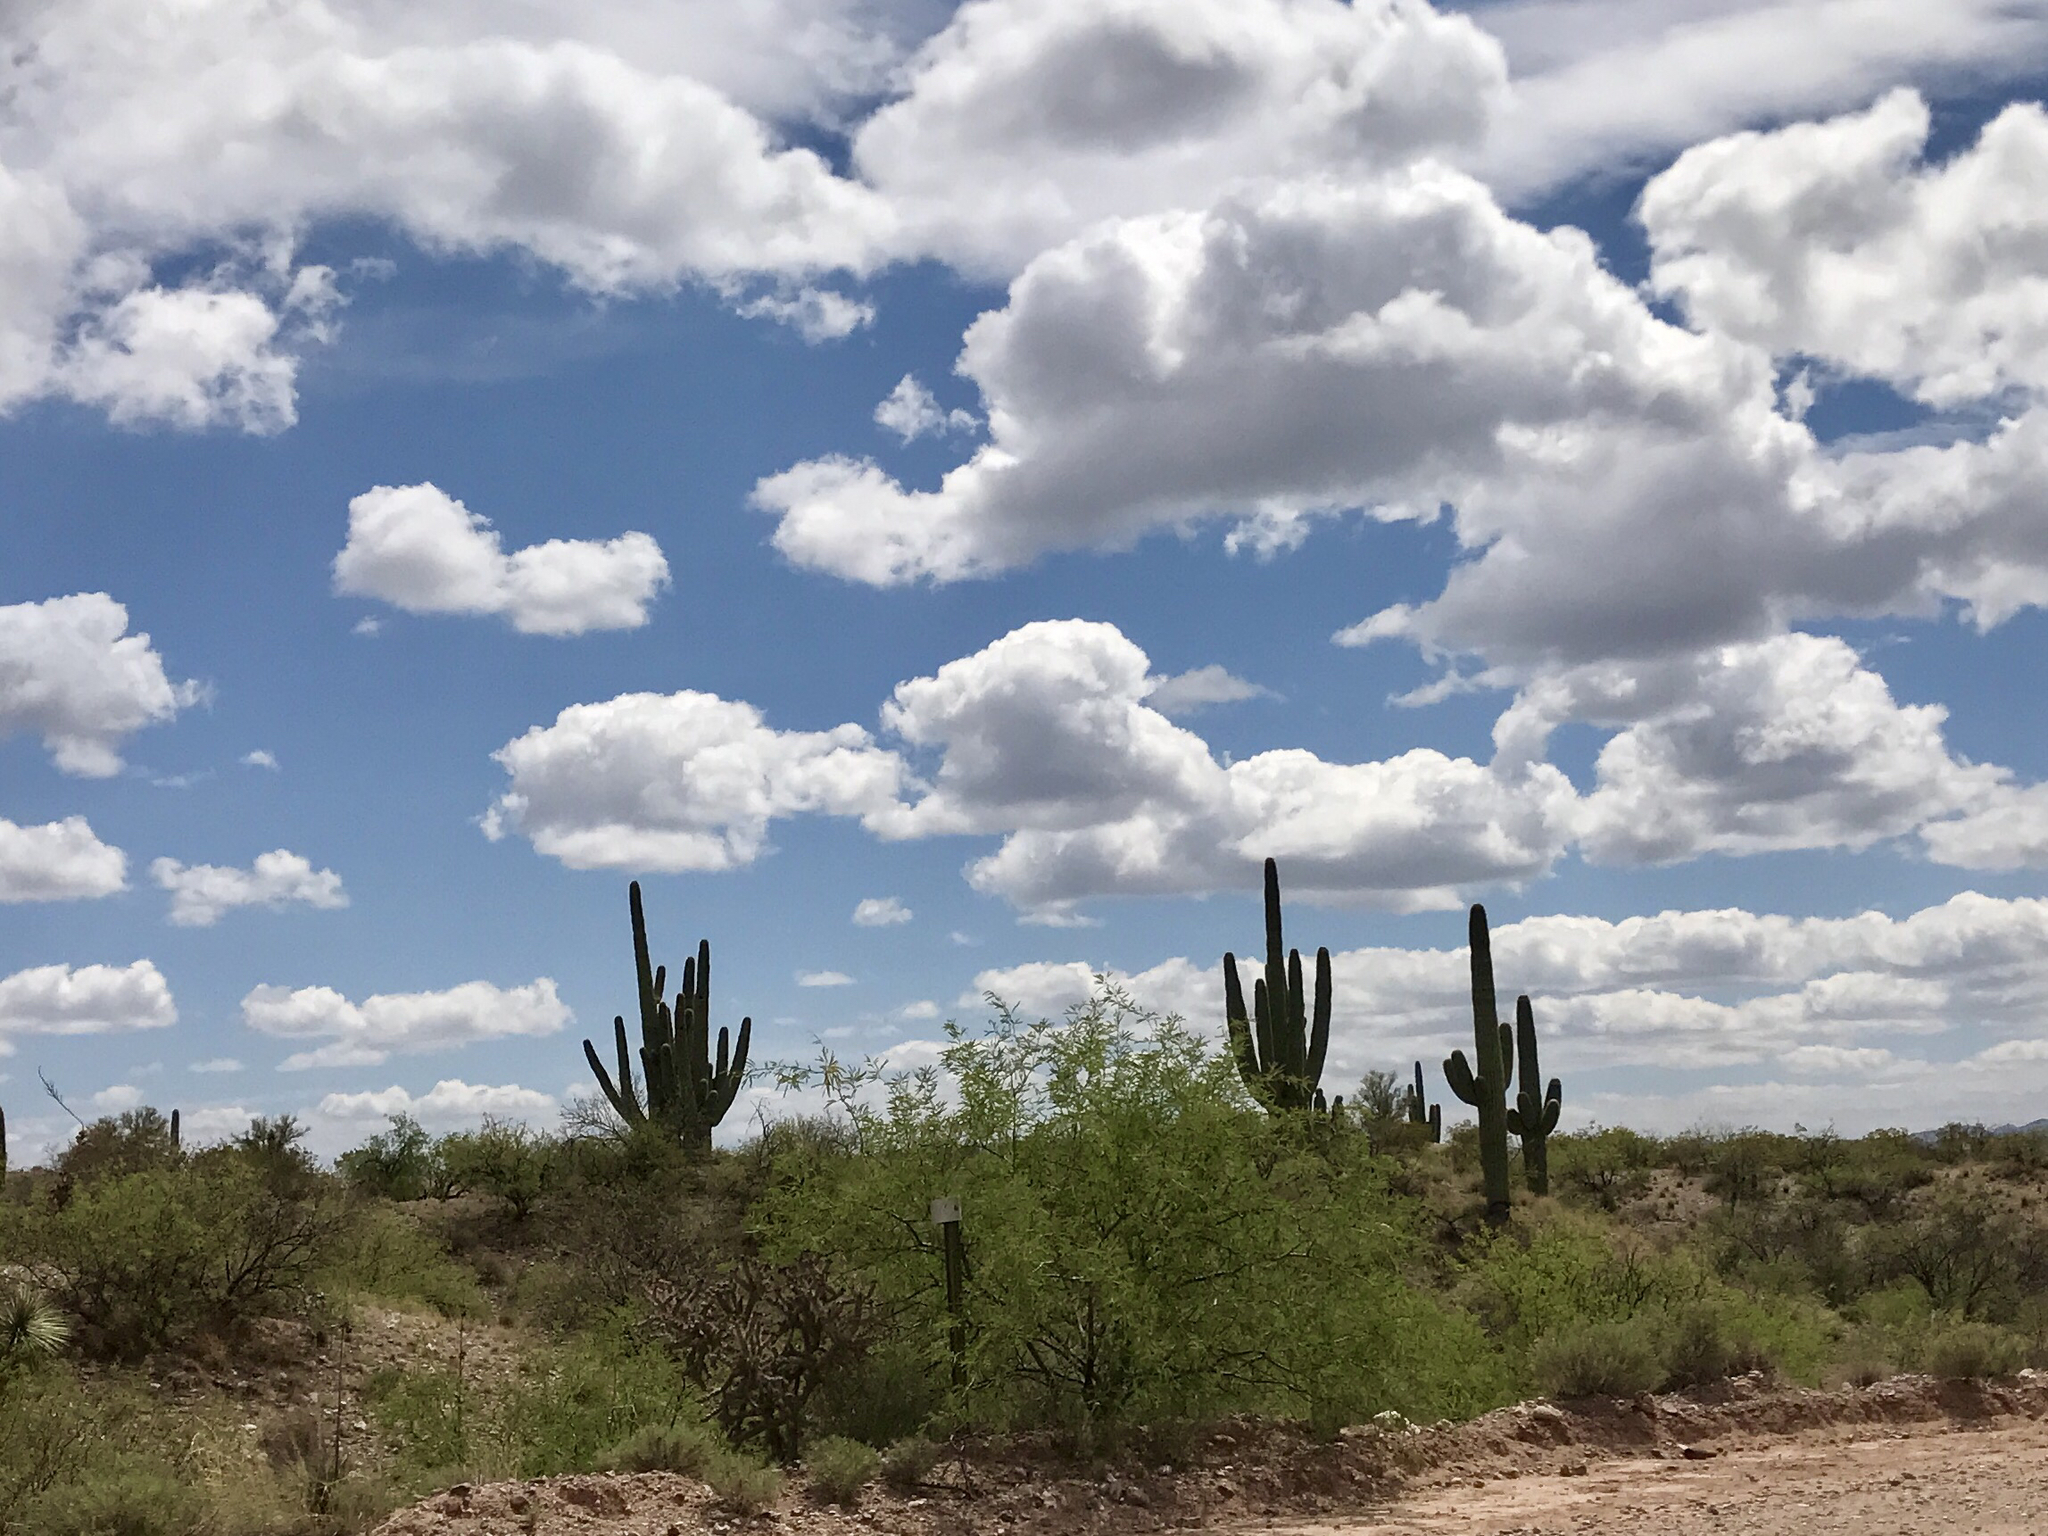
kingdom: Plantae
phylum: Tracheophyta
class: Magnoliopsida
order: Caryophyllales
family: Cactaceae
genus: Carnegiea
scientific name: Carnegiea gigantea
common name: Saguaro
